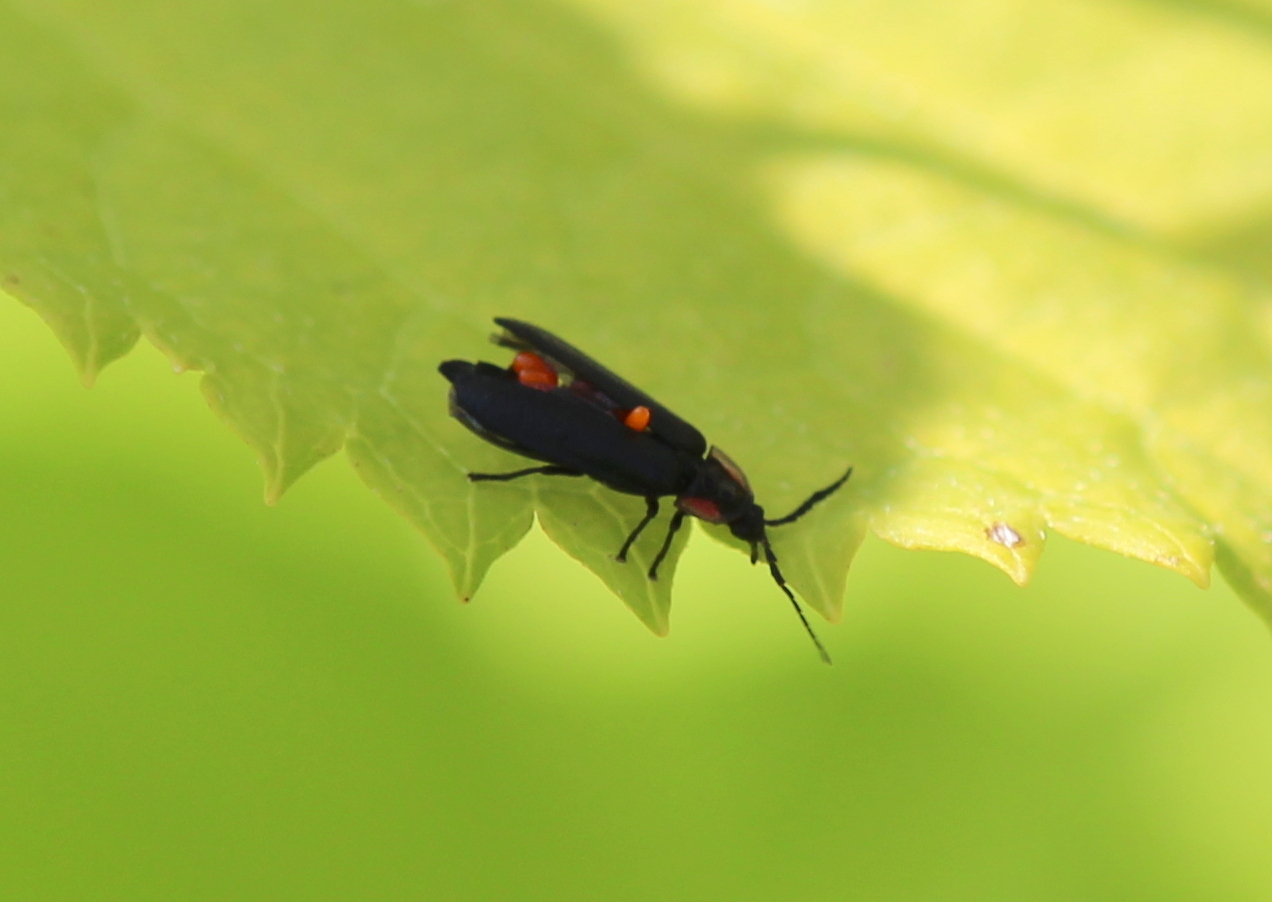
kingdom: Animalia
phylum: Arthropoda
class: Insecta
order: Coleoptera
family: Lampyridae
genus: Pyropyga
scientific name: Pyropyga
